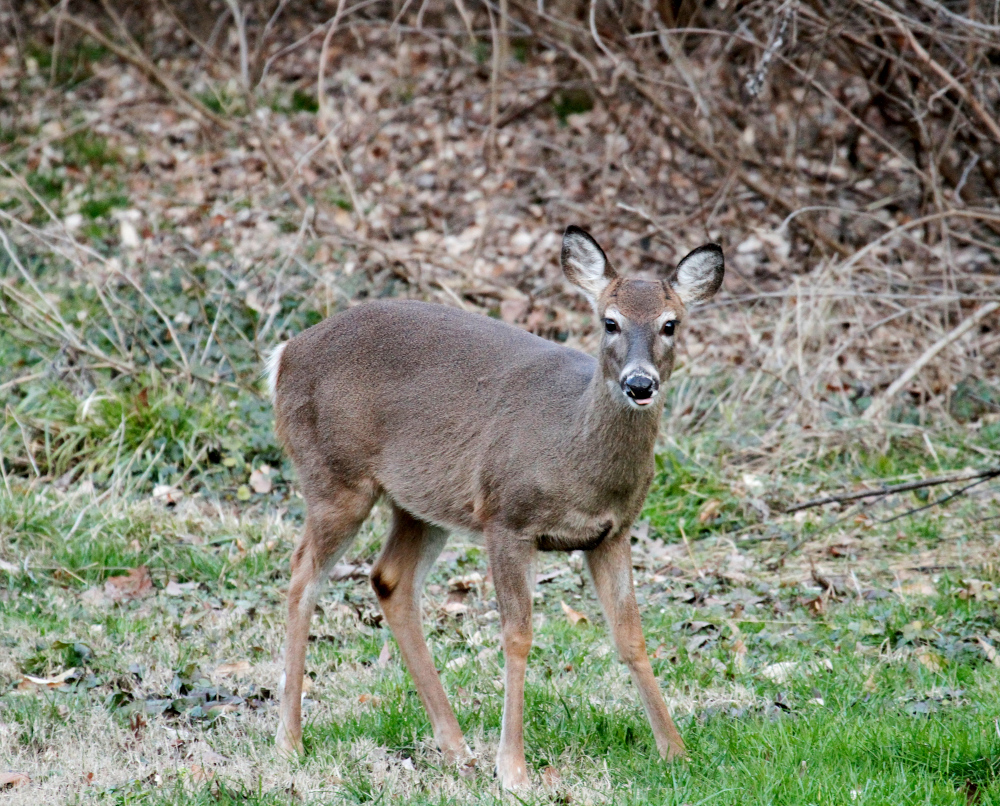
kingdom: Animalia
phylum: Chordata
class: Mammalia
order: Artiodactyla
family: Cervidae
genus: Odocoileus
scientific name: Odocoileus virginianus
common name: White-tailed deer
